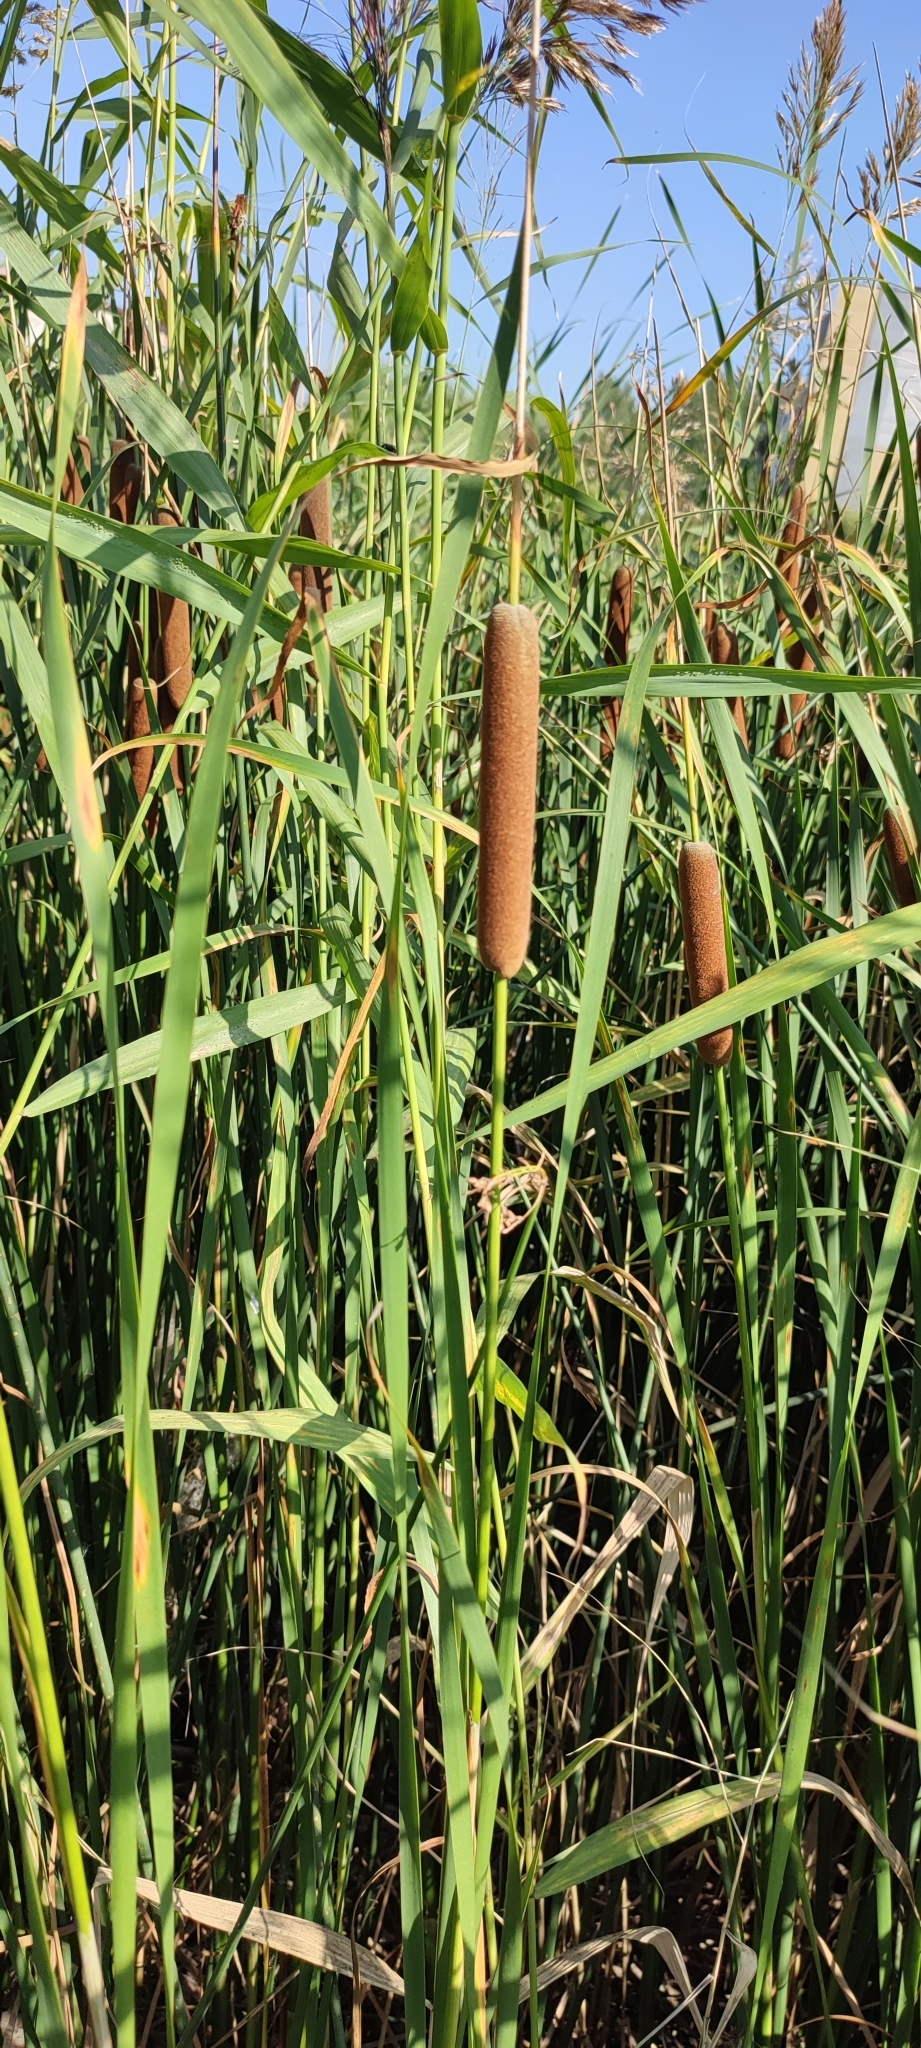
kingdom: Plantae
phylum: Tracheophyta
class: Liliopsida
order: Poales
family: Typhaceae
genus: Typha
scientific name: Typha linnaei
